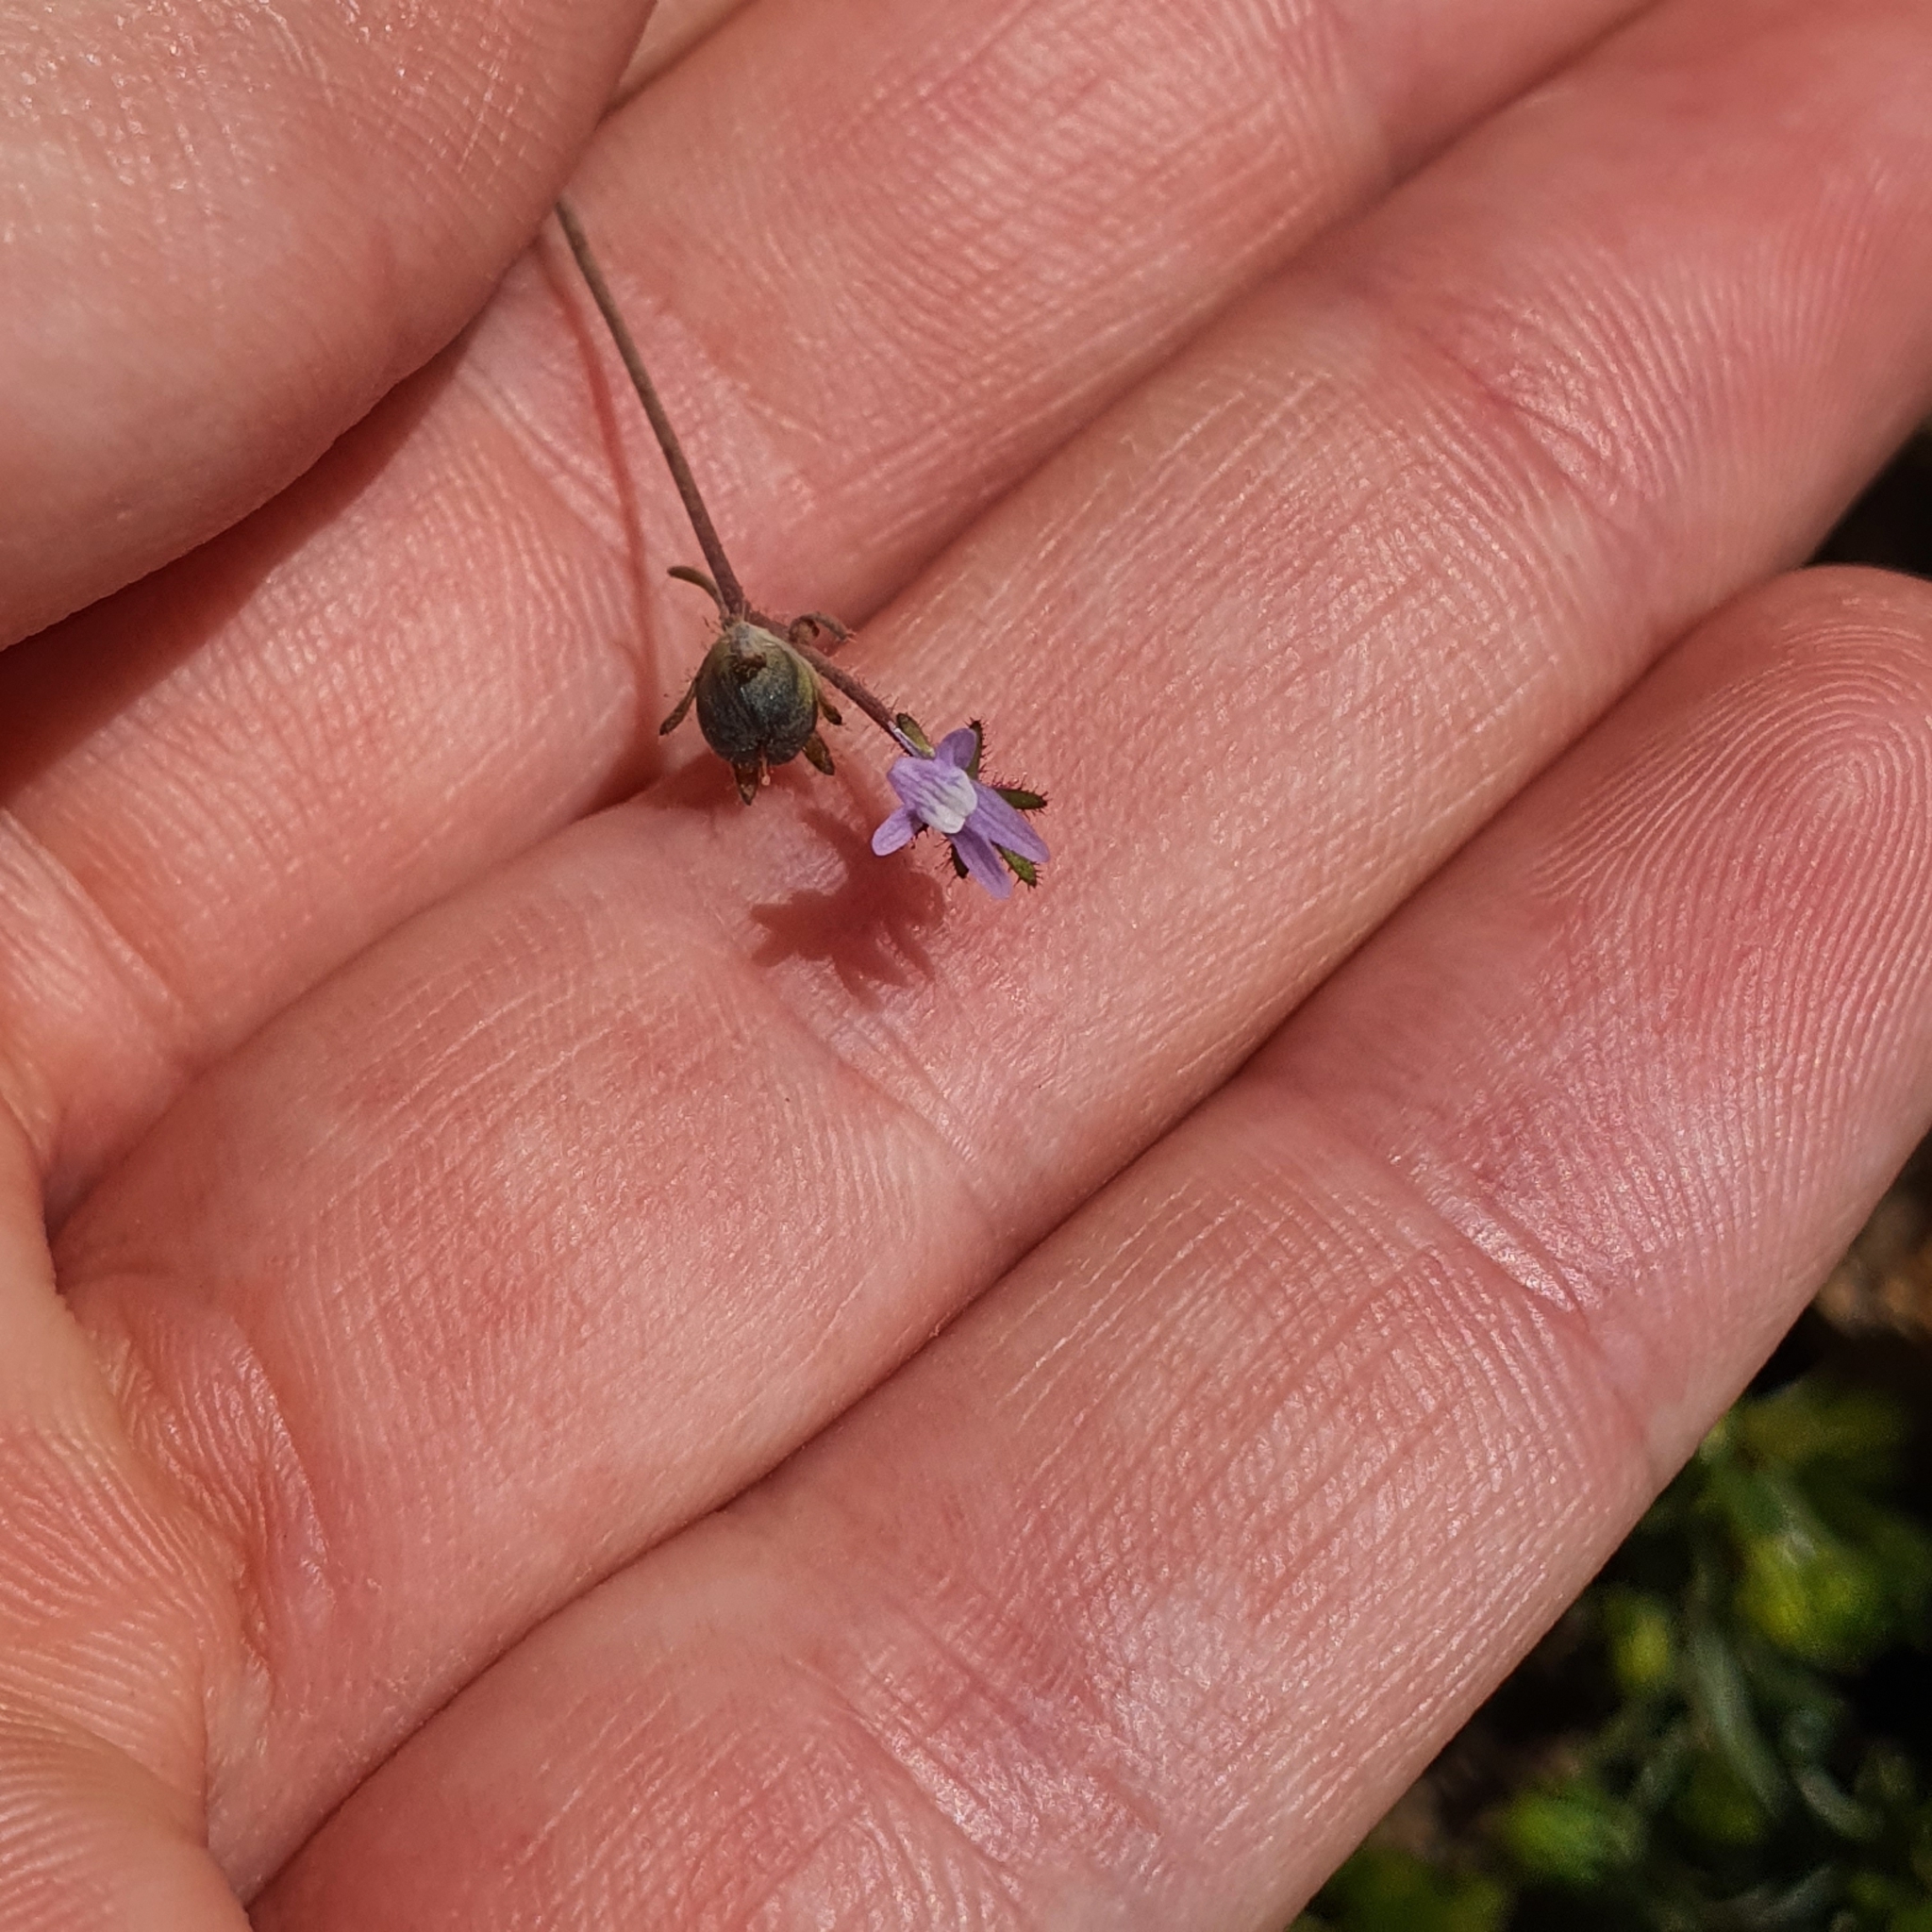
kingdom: Plantae
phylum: Tracheophyta
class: Magnoliopsida
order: Lamiales
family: Plantaginaceae
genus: Linaria
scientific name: Linaria arvensis
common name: Corn toadflax
